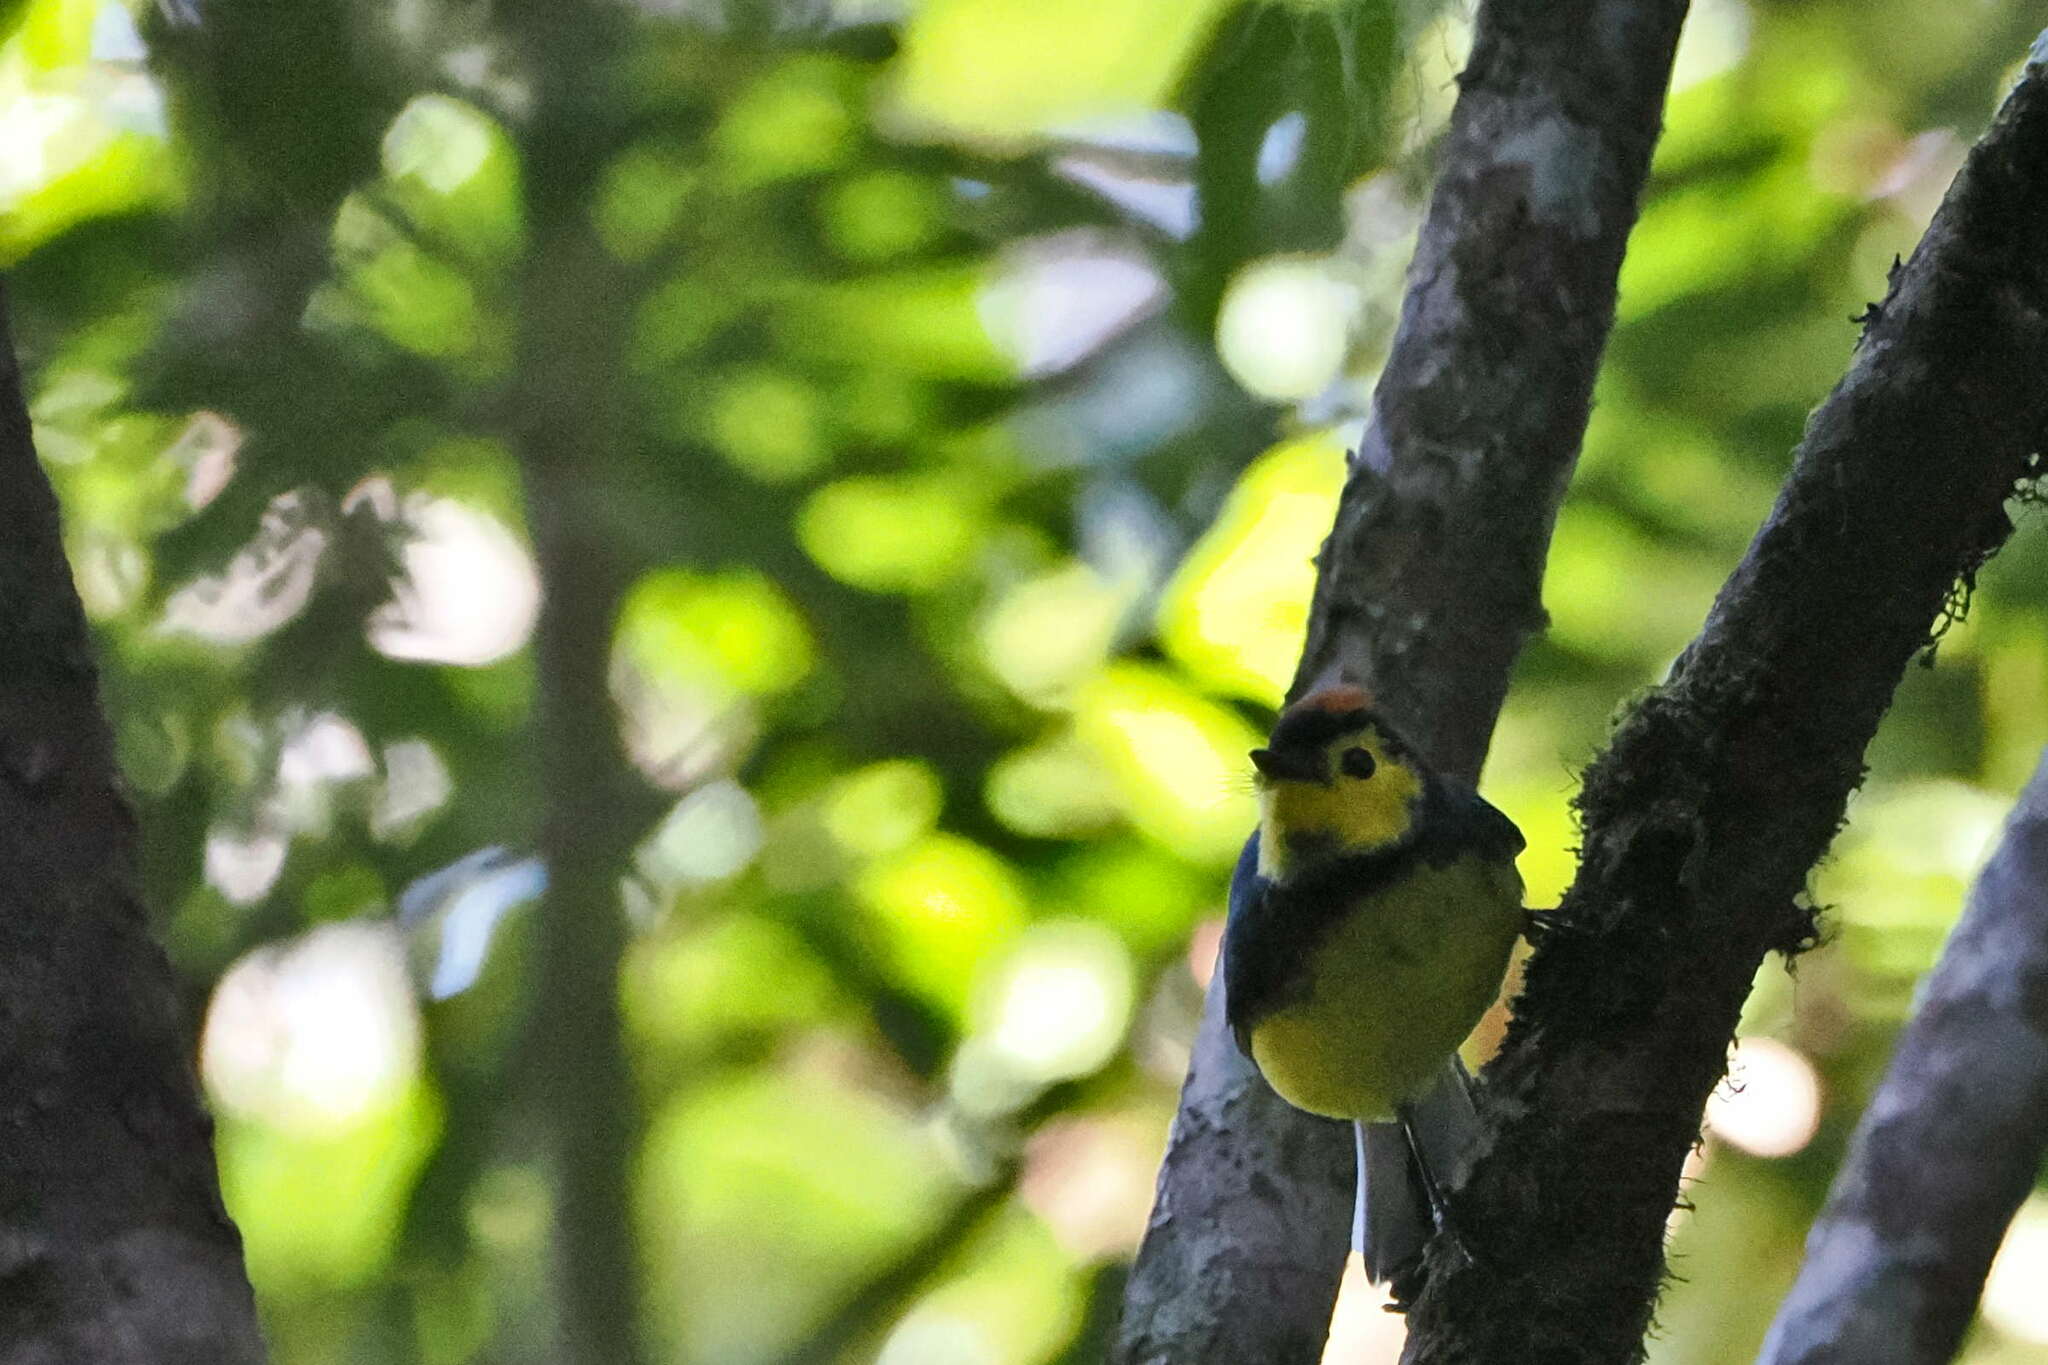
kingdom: Animalia
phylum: Chordata
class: Aves
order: Passeriformes
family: Parulidae
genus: Myioborus
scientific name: Myioborus torquatus
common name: Collared whitestart
